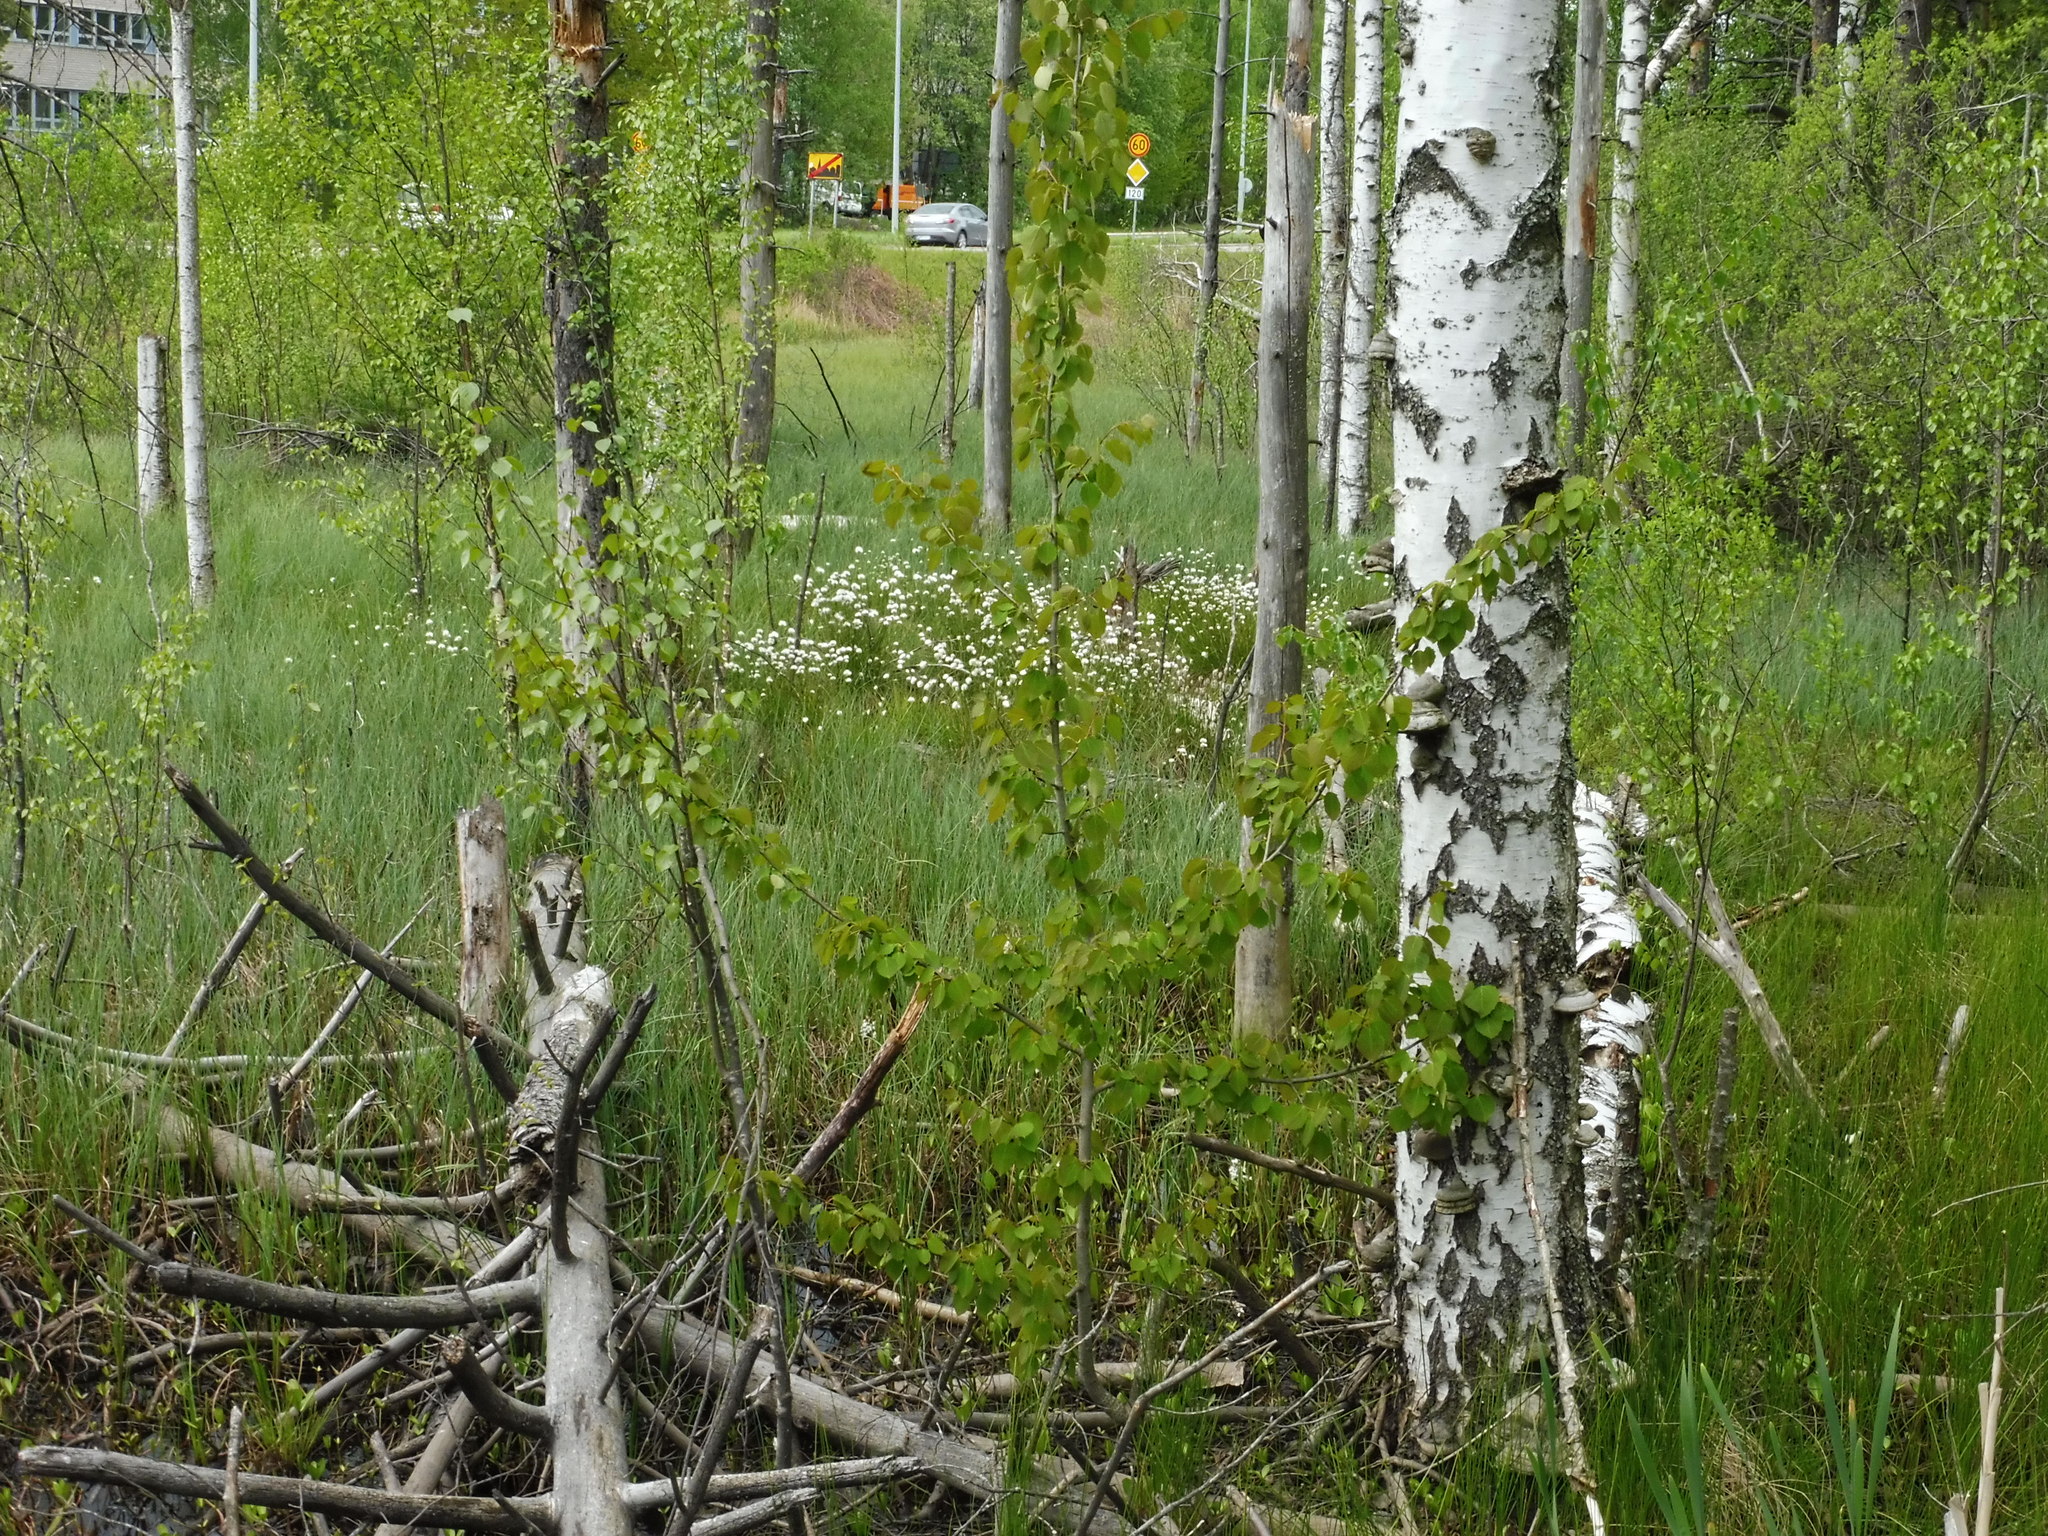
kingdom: Plantae
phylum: Tracheophyta
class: Liliopsida
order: Poales
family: Cyperaceae
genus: Eriophorum
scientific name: Eriophorum vaginatum
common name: Hare's-tail cottongrass
